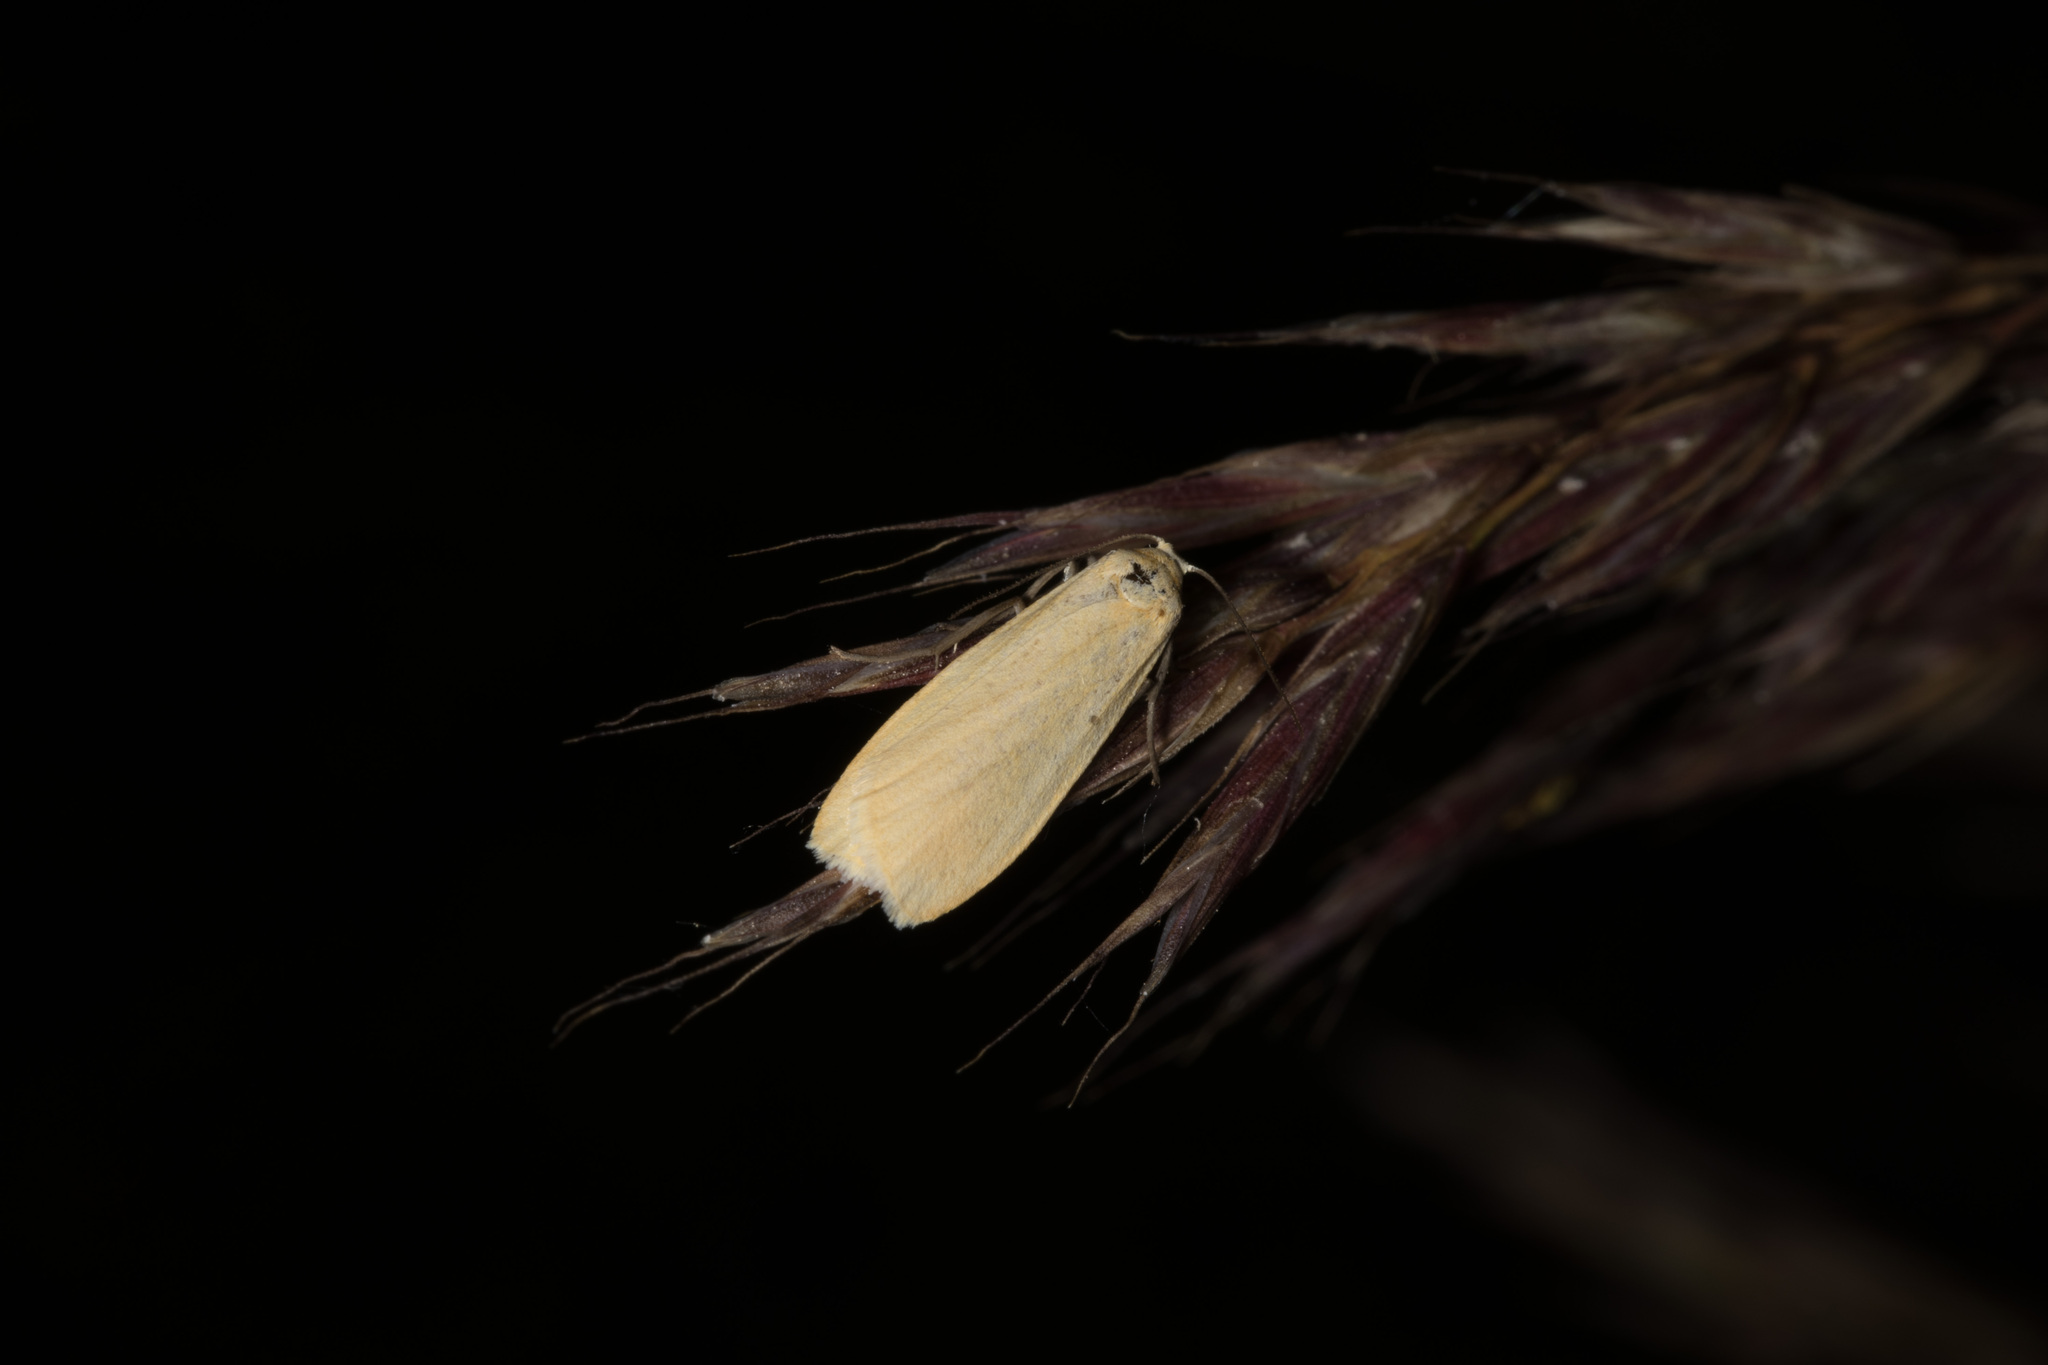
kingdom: Animalia
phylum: Arthropoda
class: Insecta
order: Lepidoptera
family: Erebidae
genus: Wittia
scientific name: Wittia sororcula
